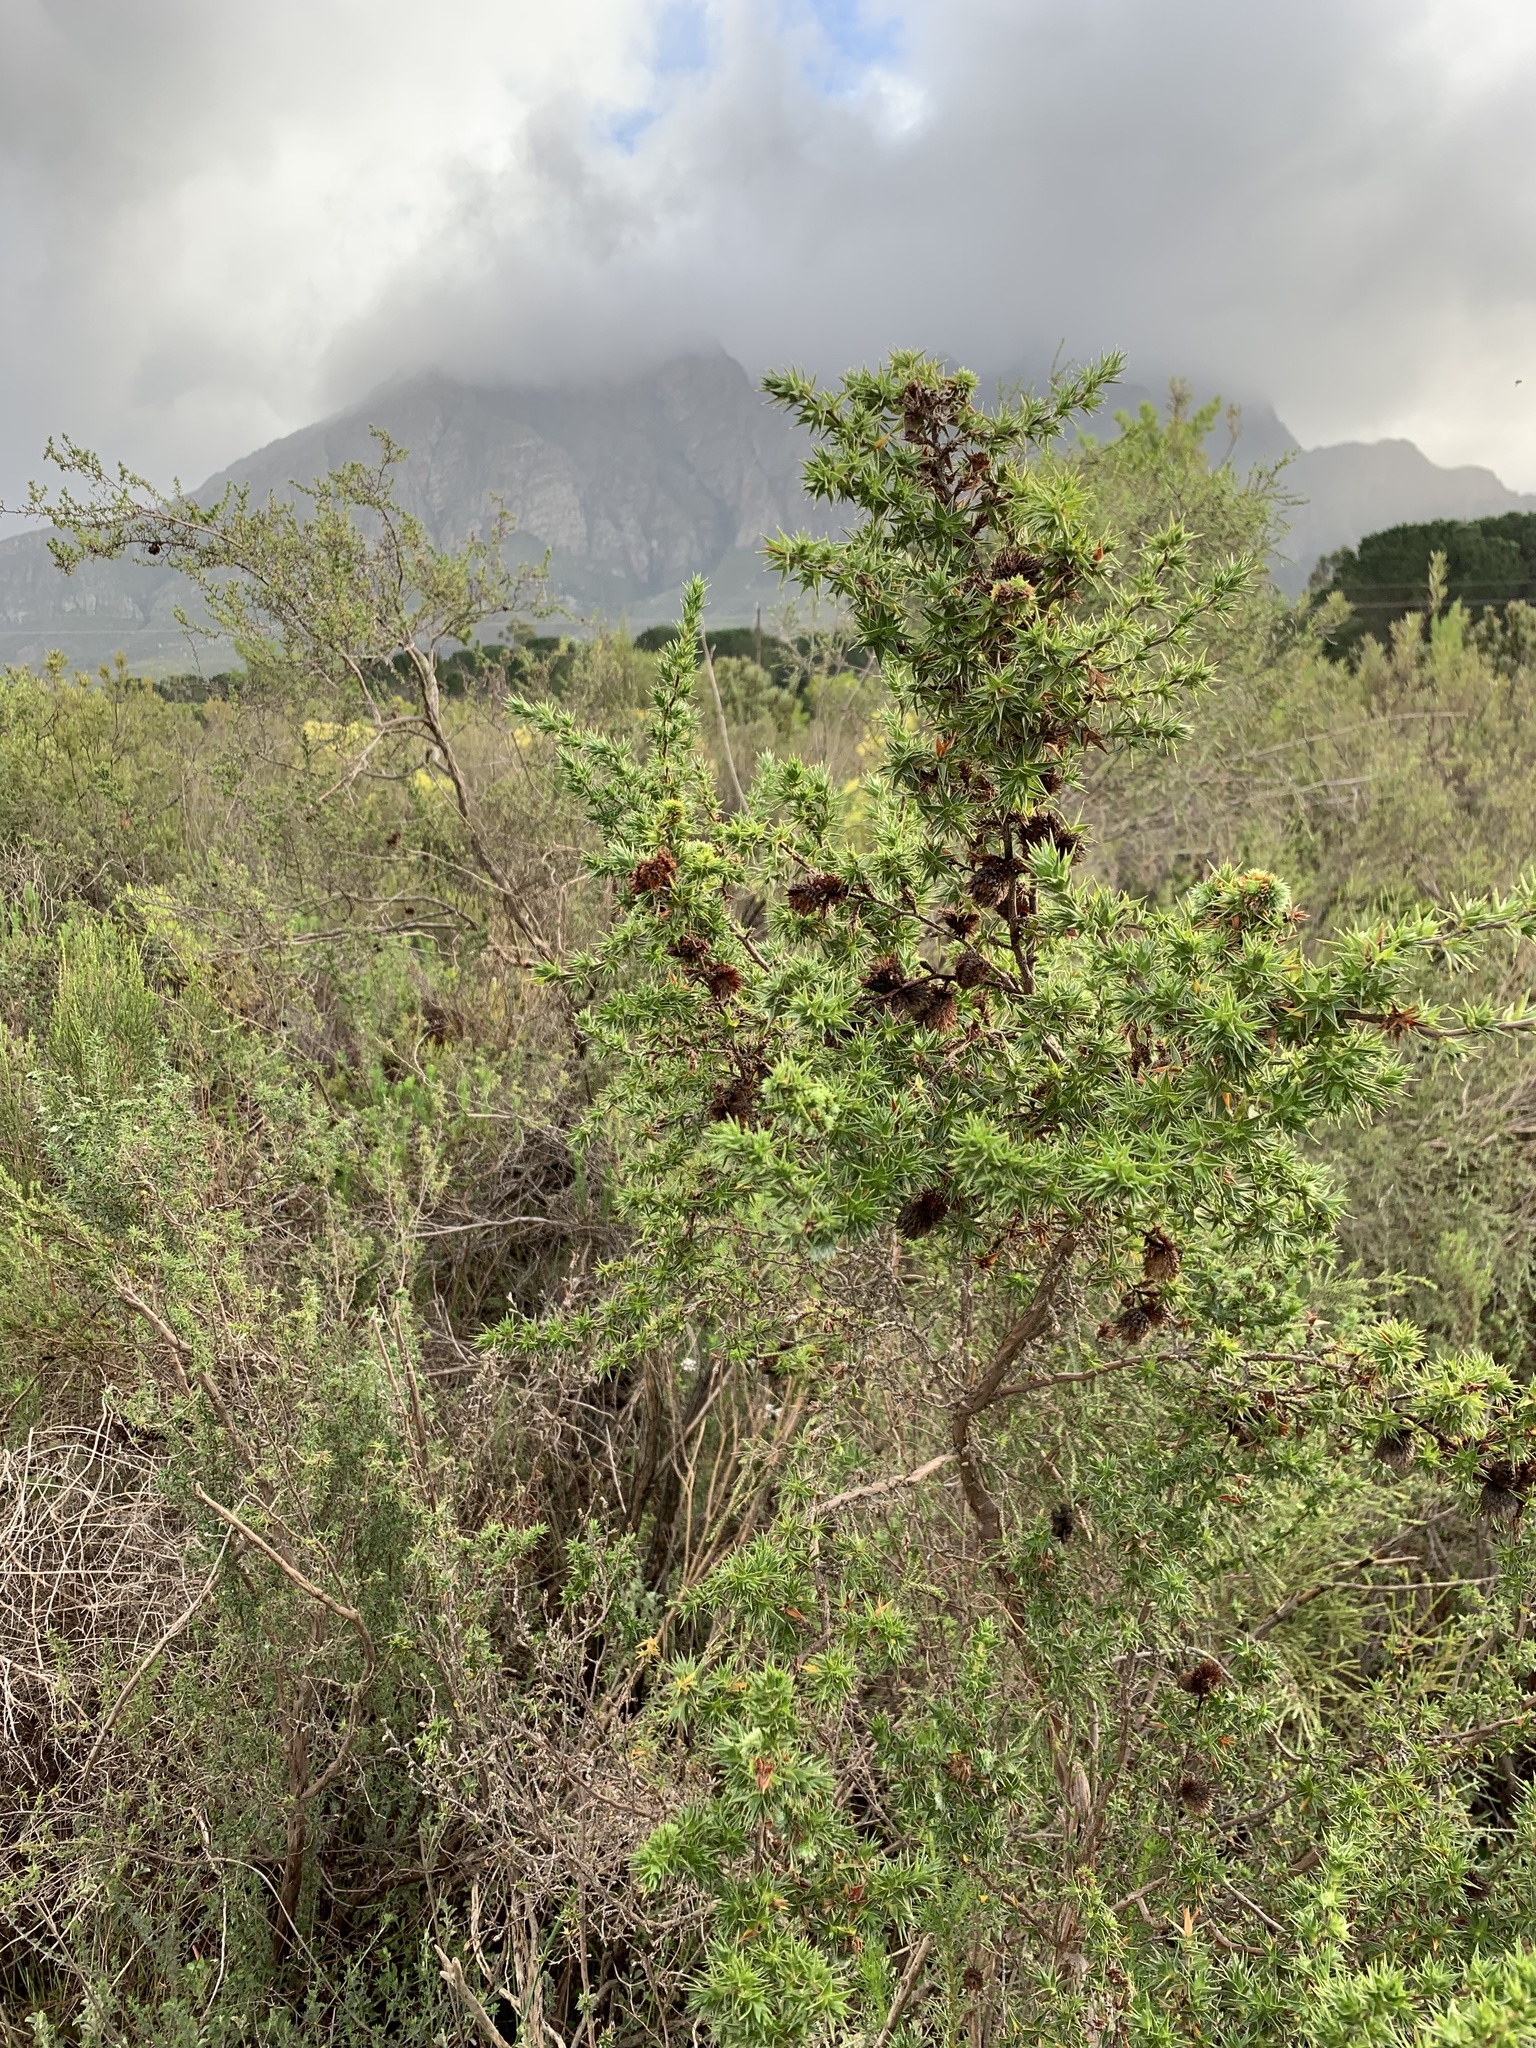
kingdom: Plantae
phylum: Tracheophyta
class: Magnoliopsida
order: Rosales
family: Rosaceae
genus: Cliffortia
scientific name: Cliffortia ruscifolia
